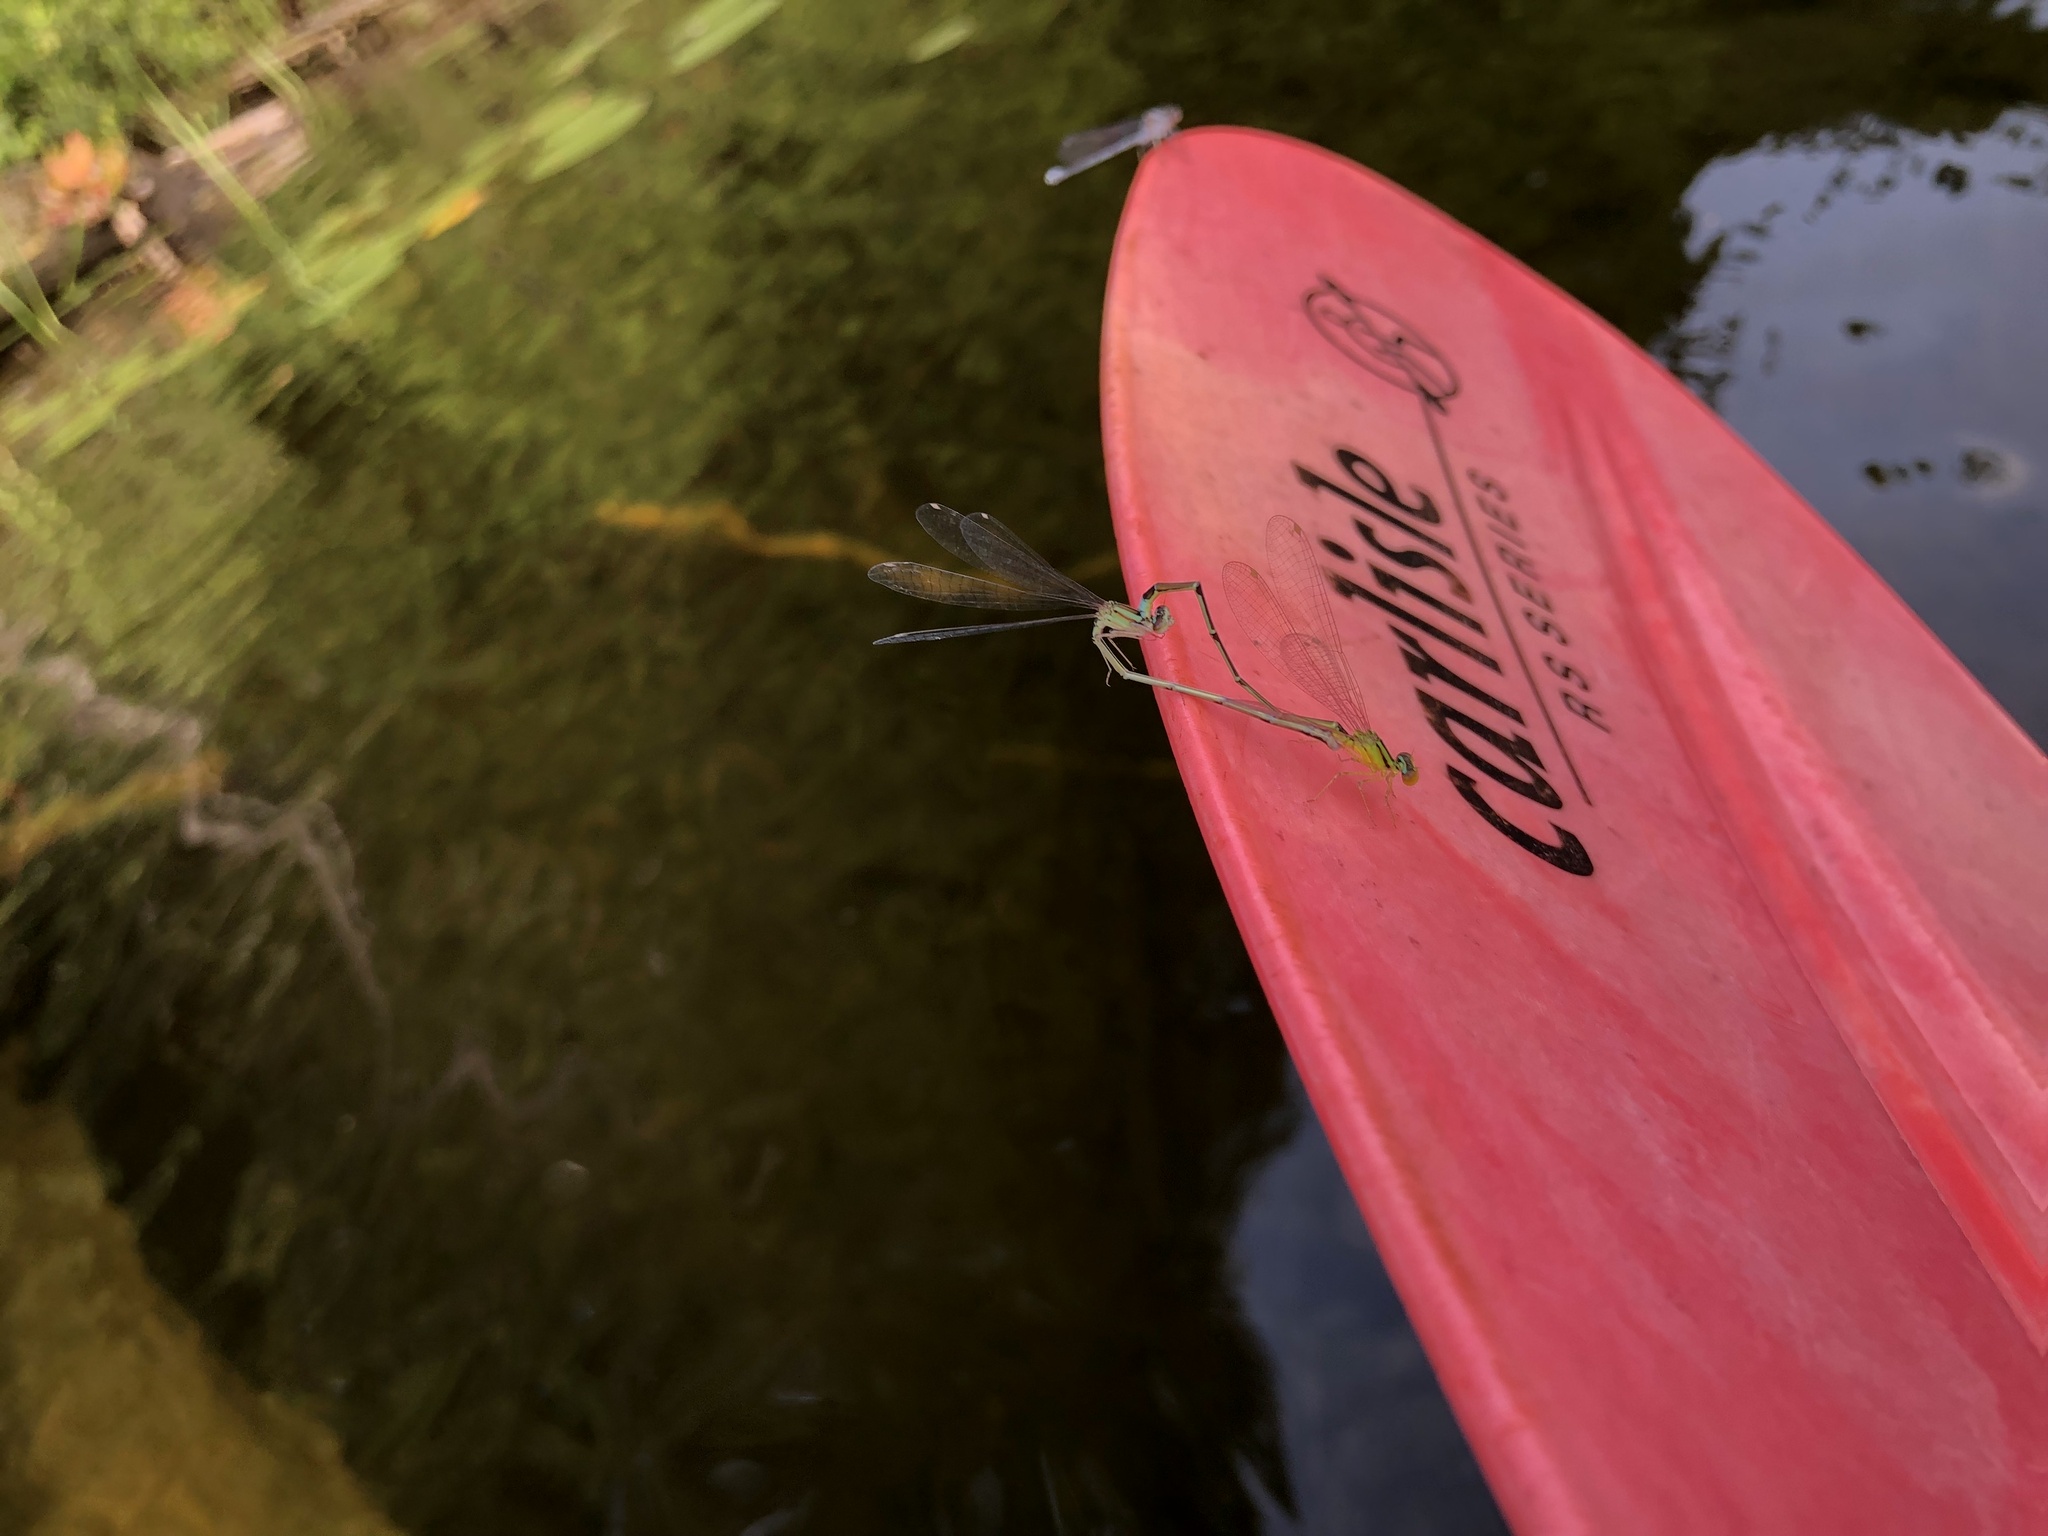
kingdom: Animalia
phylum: Arthropoda
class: Insecta
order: Odonata
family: Coenagrionidae
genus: Enallagma
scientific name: Enallagma vesperum
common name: Vesper bluet
